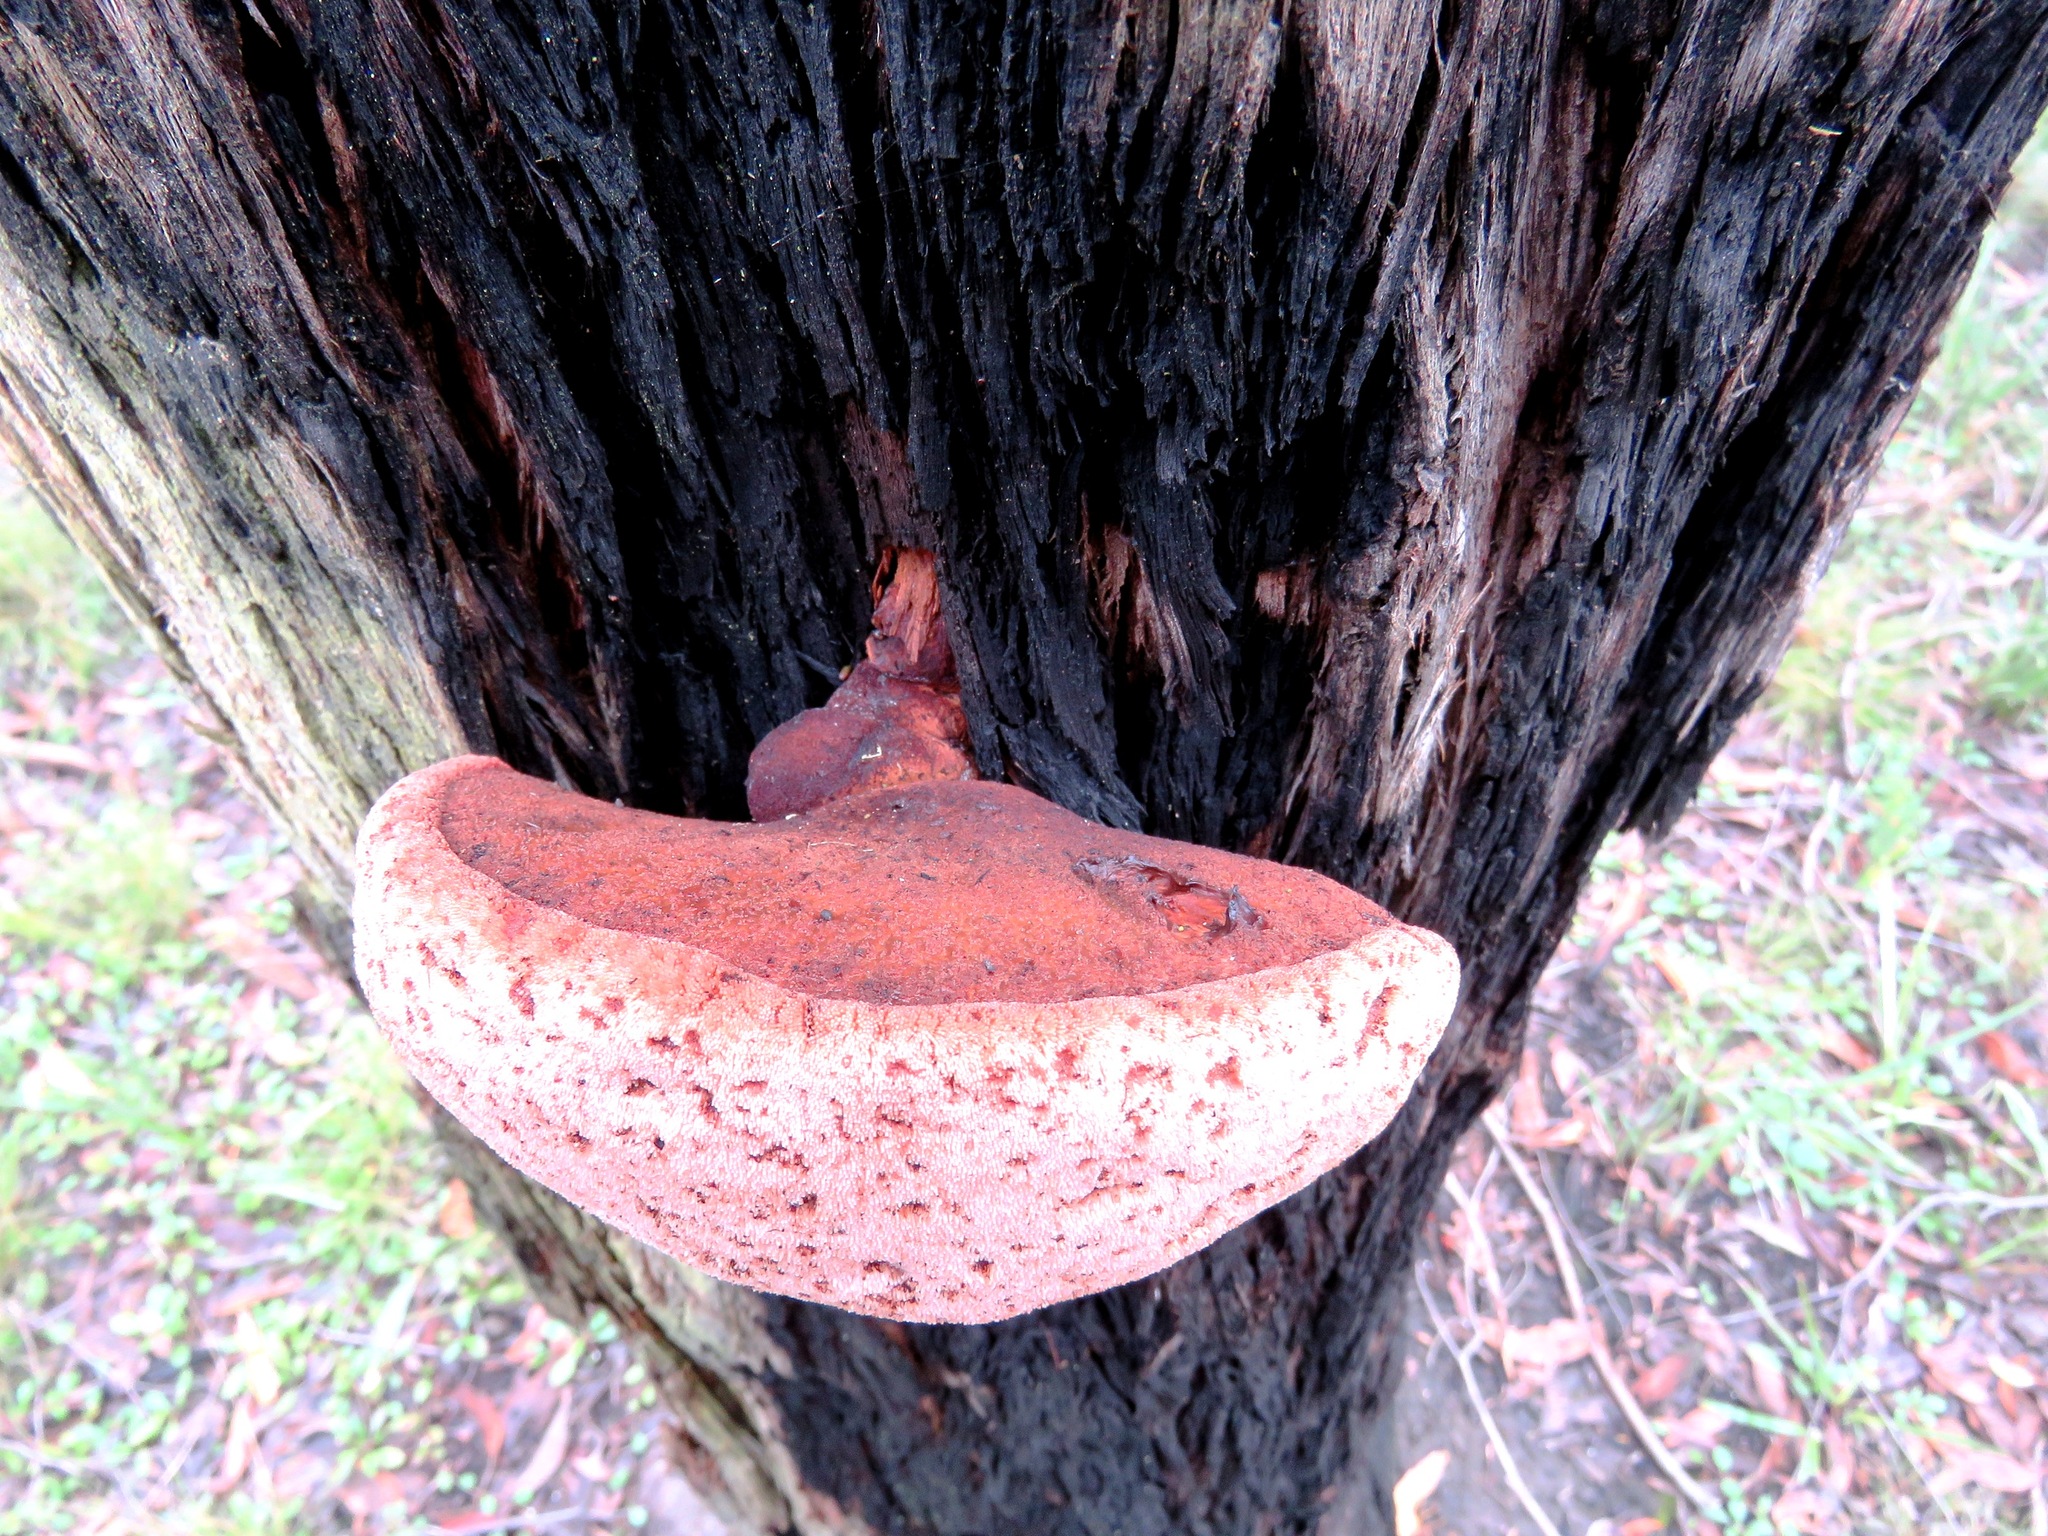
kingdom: Fungi
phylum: Basidiomycota
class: Agaricomycetes
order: Agaricales
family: Fistulinaceae
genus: Fistulina
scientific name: Fistulina spiculifera
